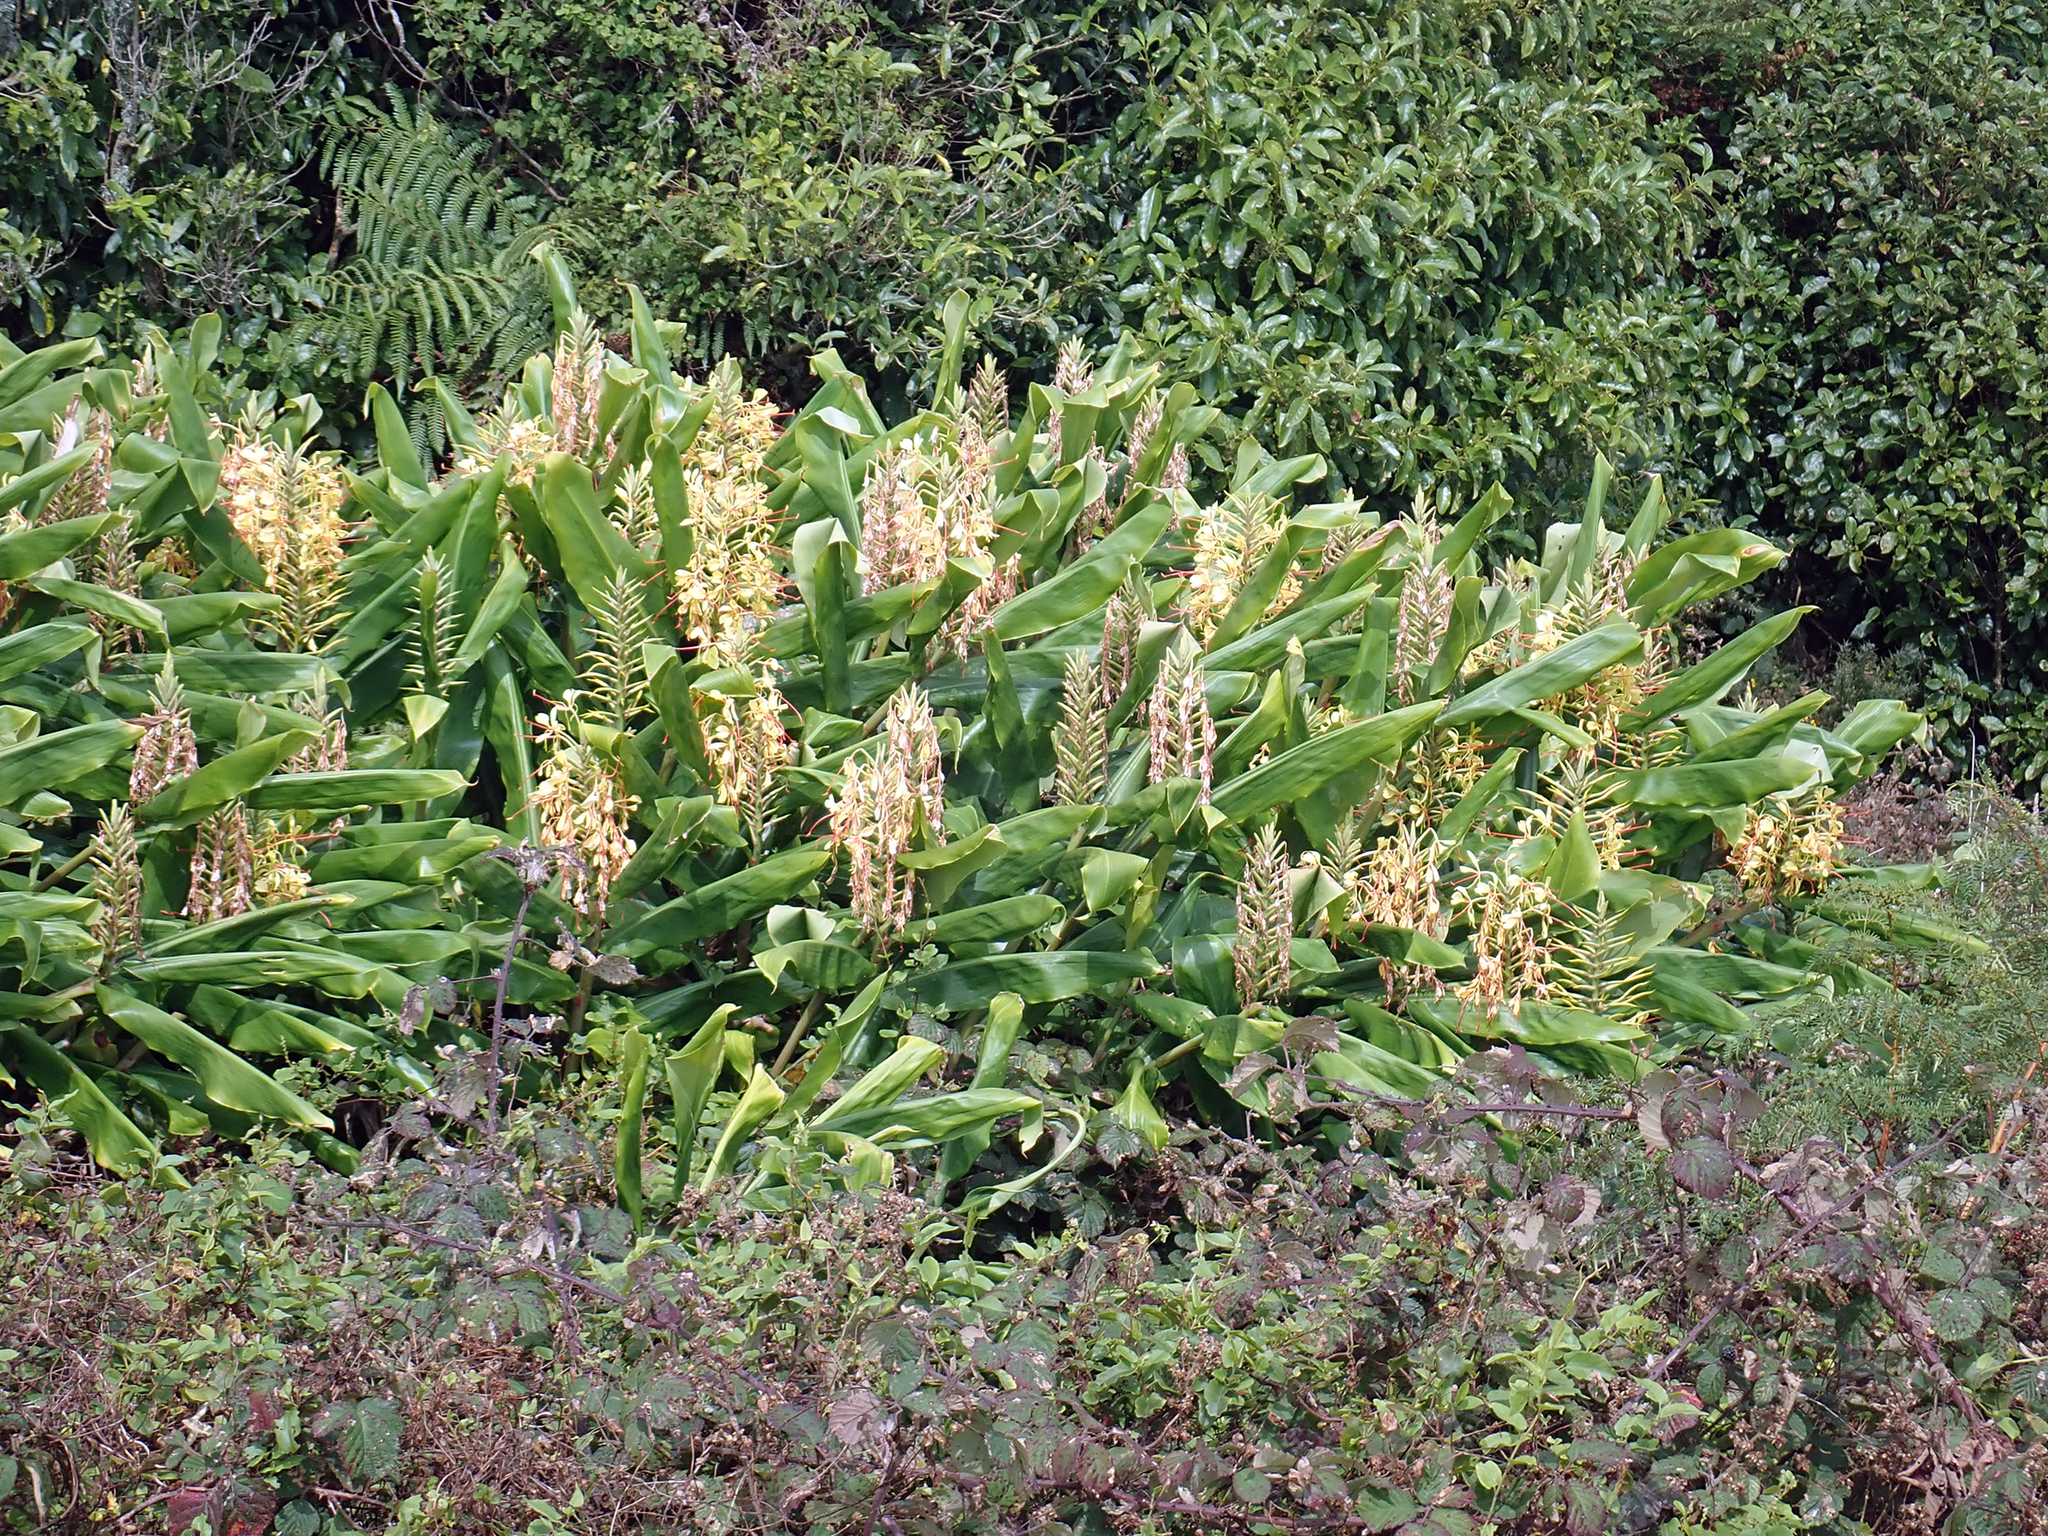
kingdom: Plantae
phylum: Tracheophyta
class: Liliopsida
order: Zingiberales
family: Zingiberaceae
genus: Hedychium
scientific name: Hedychium gardnerianum
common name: Himalayan ginger
